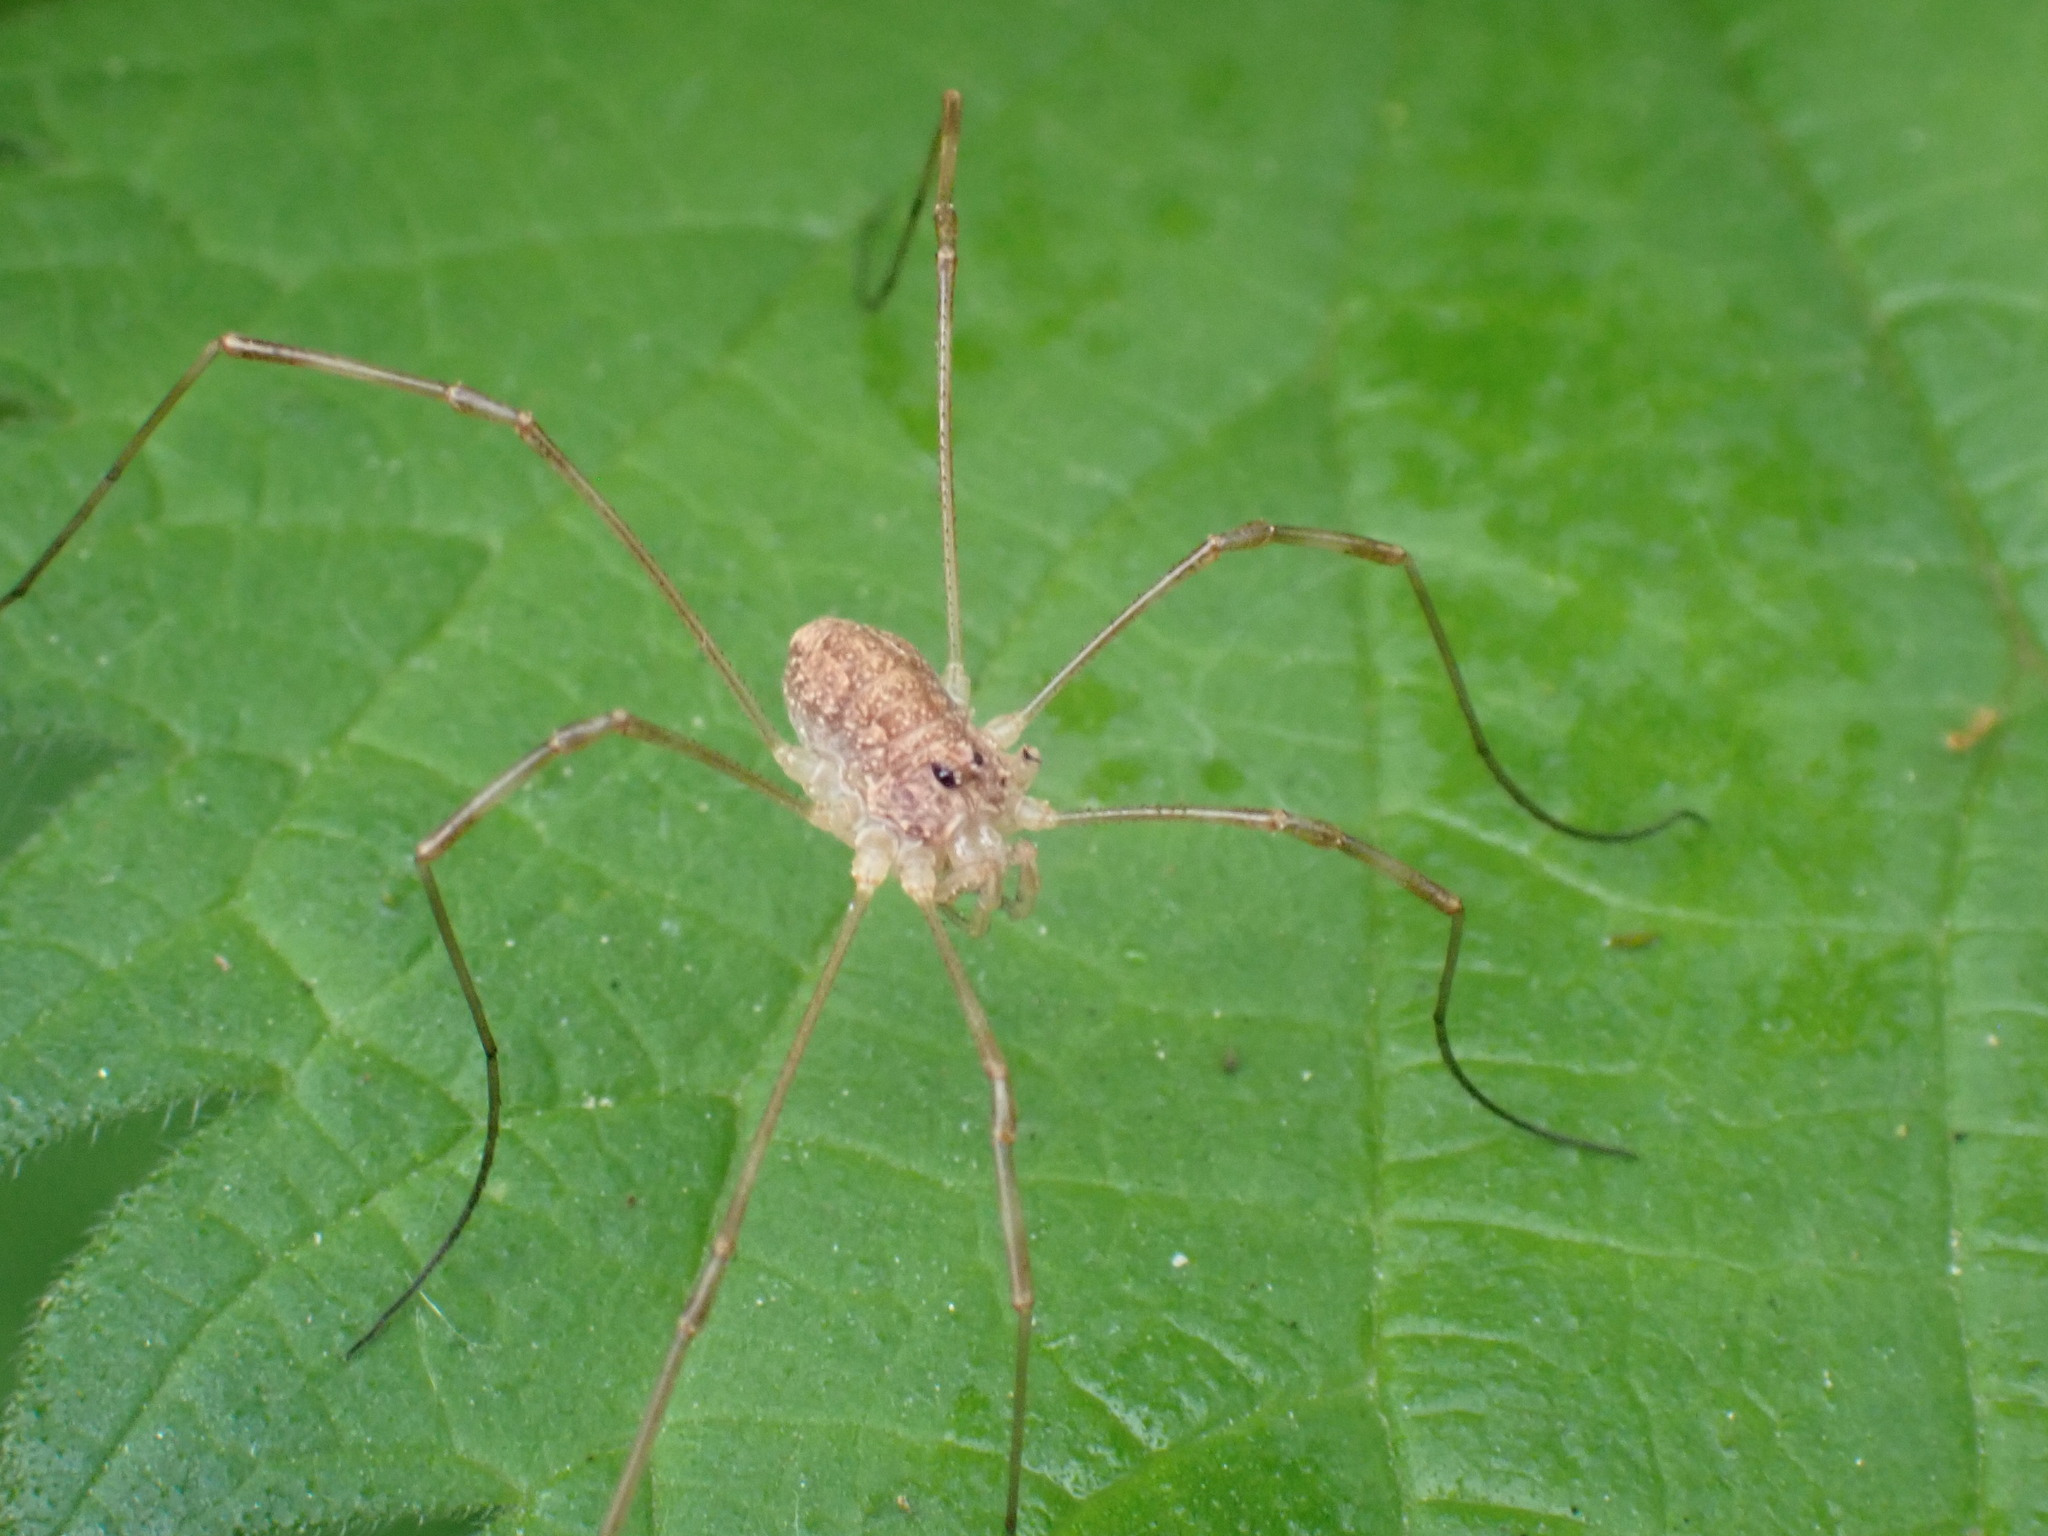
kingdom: Animalia
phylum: Arthropoda
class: Arachnida
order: Opiliones
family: Phalangiidae
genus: Rilaena
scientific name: Rilaena triangularis
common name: Spring harvestman
